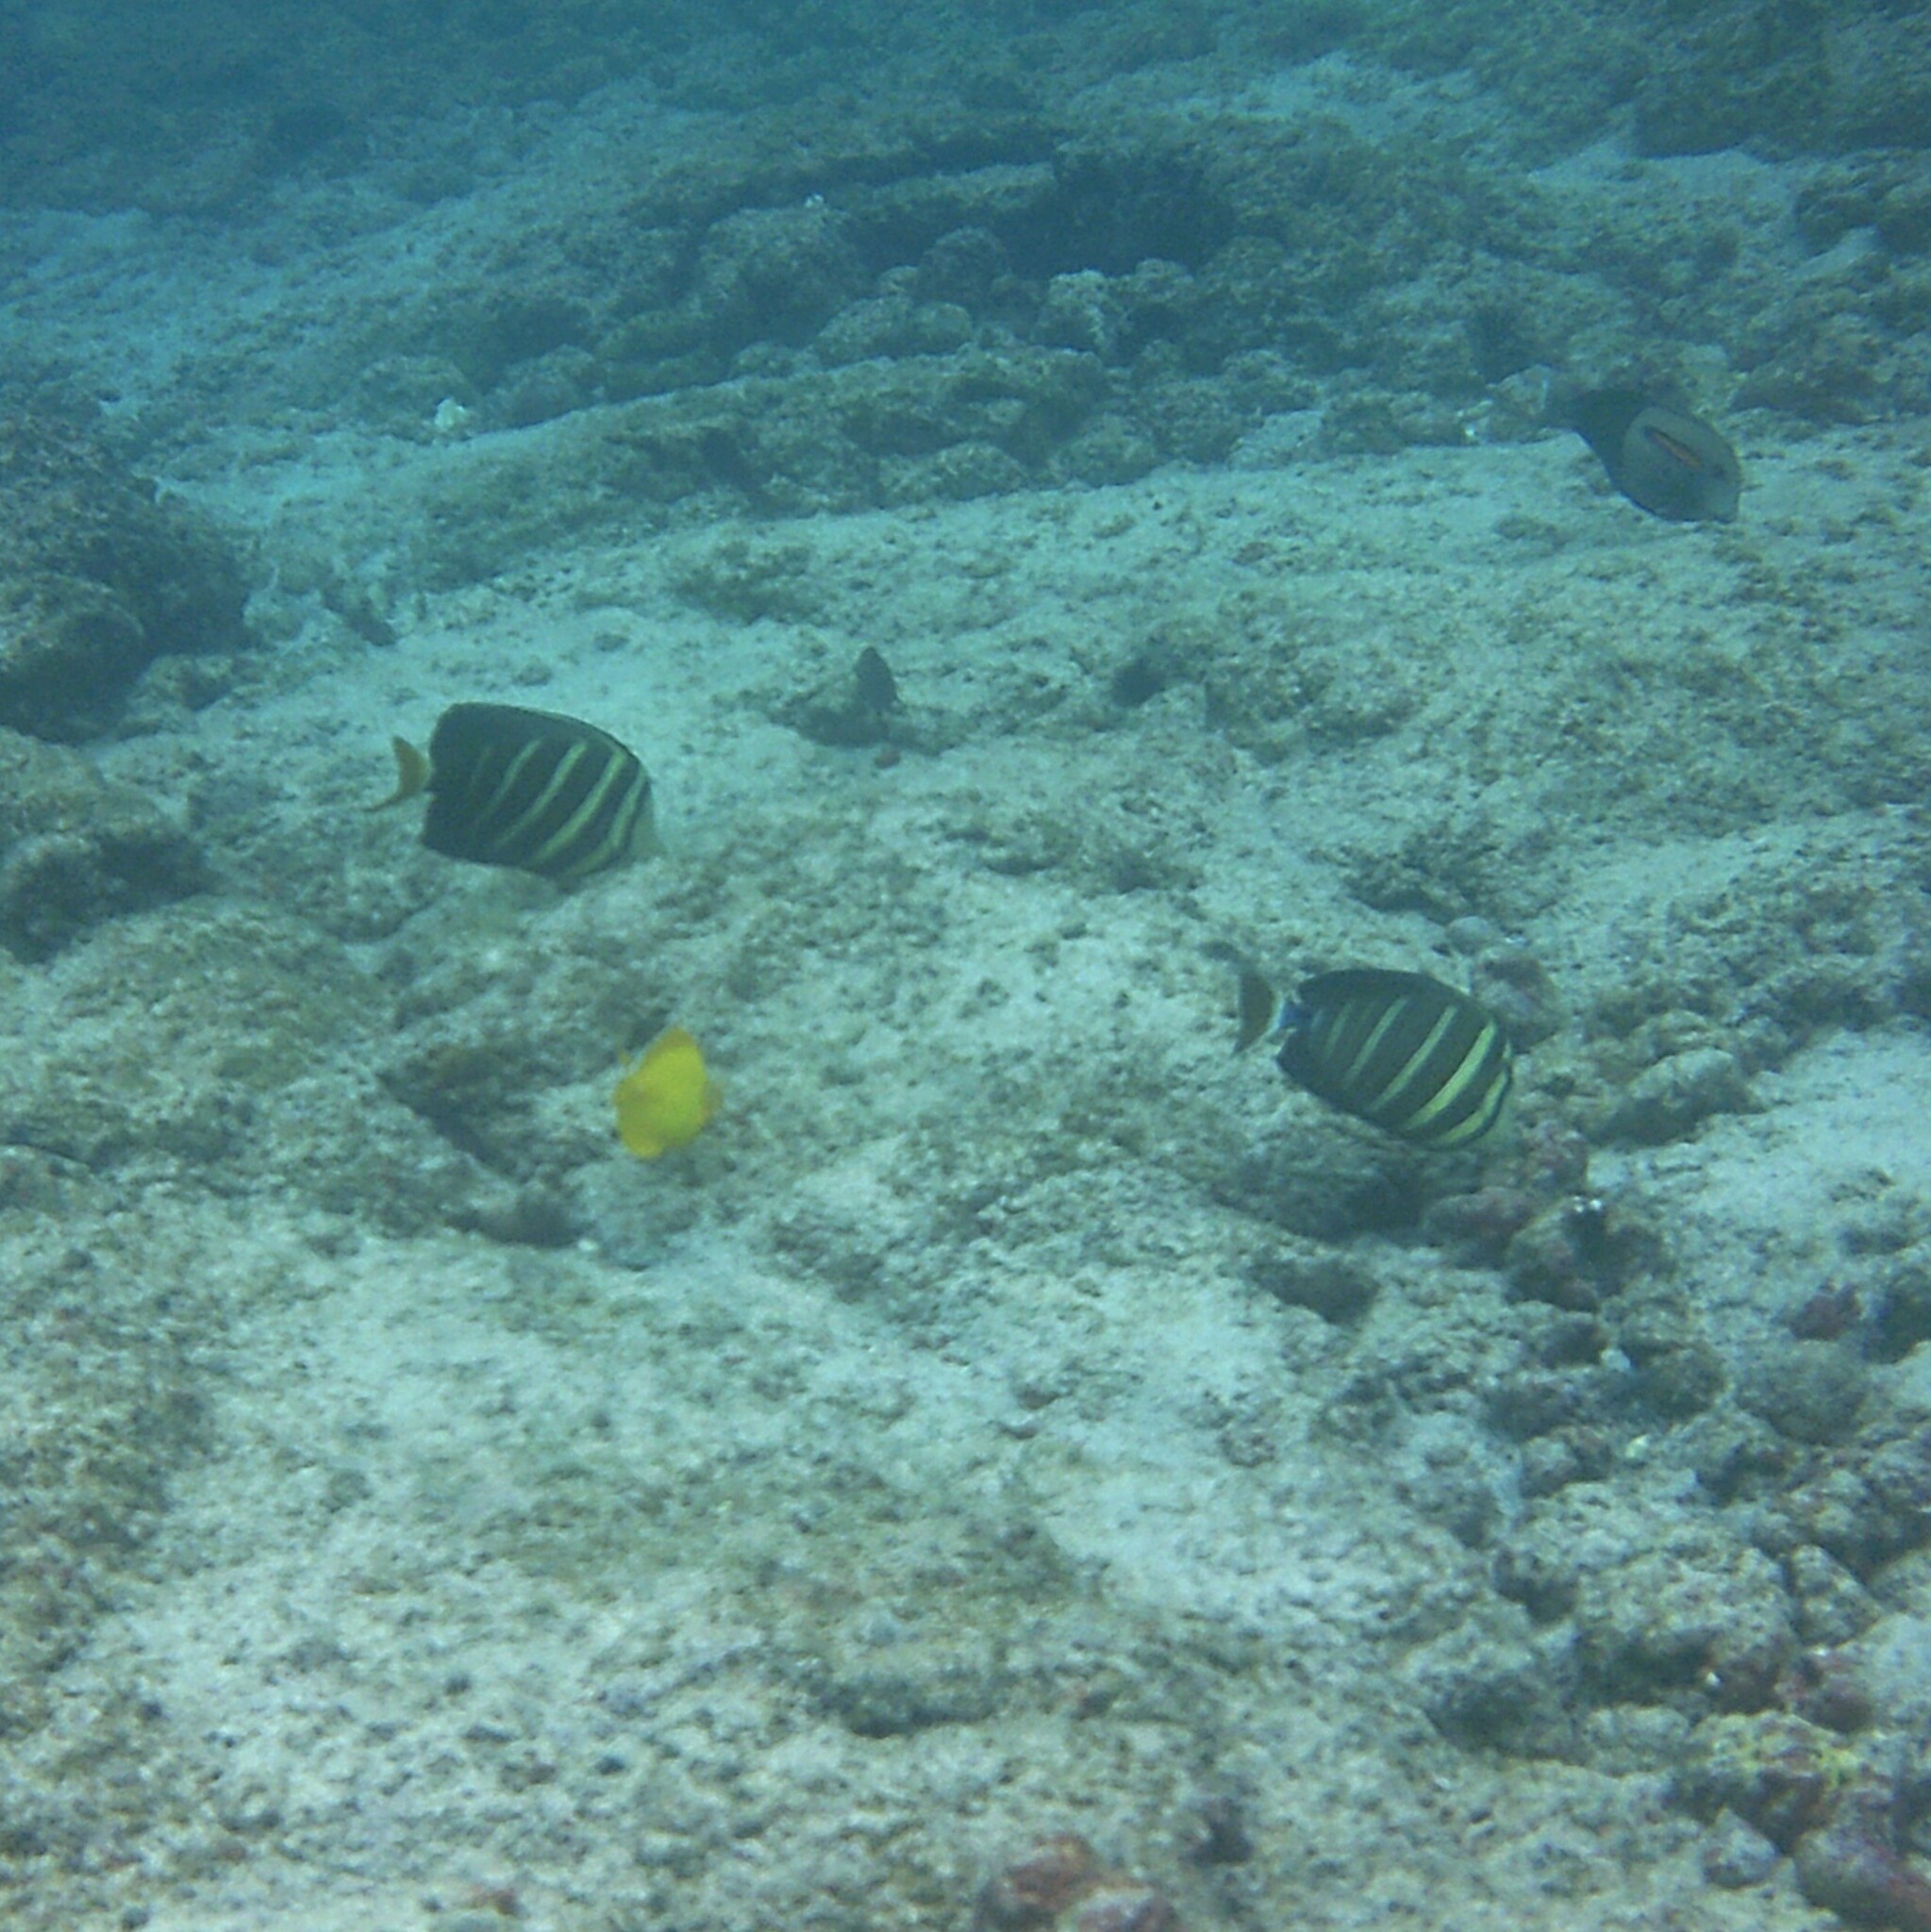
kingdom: Animalia
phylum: Chordata
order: Perciformes
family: Acanthuridae
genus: Zebrasoma
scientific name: Zebrasoma veliferum
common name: Sailfin surgeonfish
